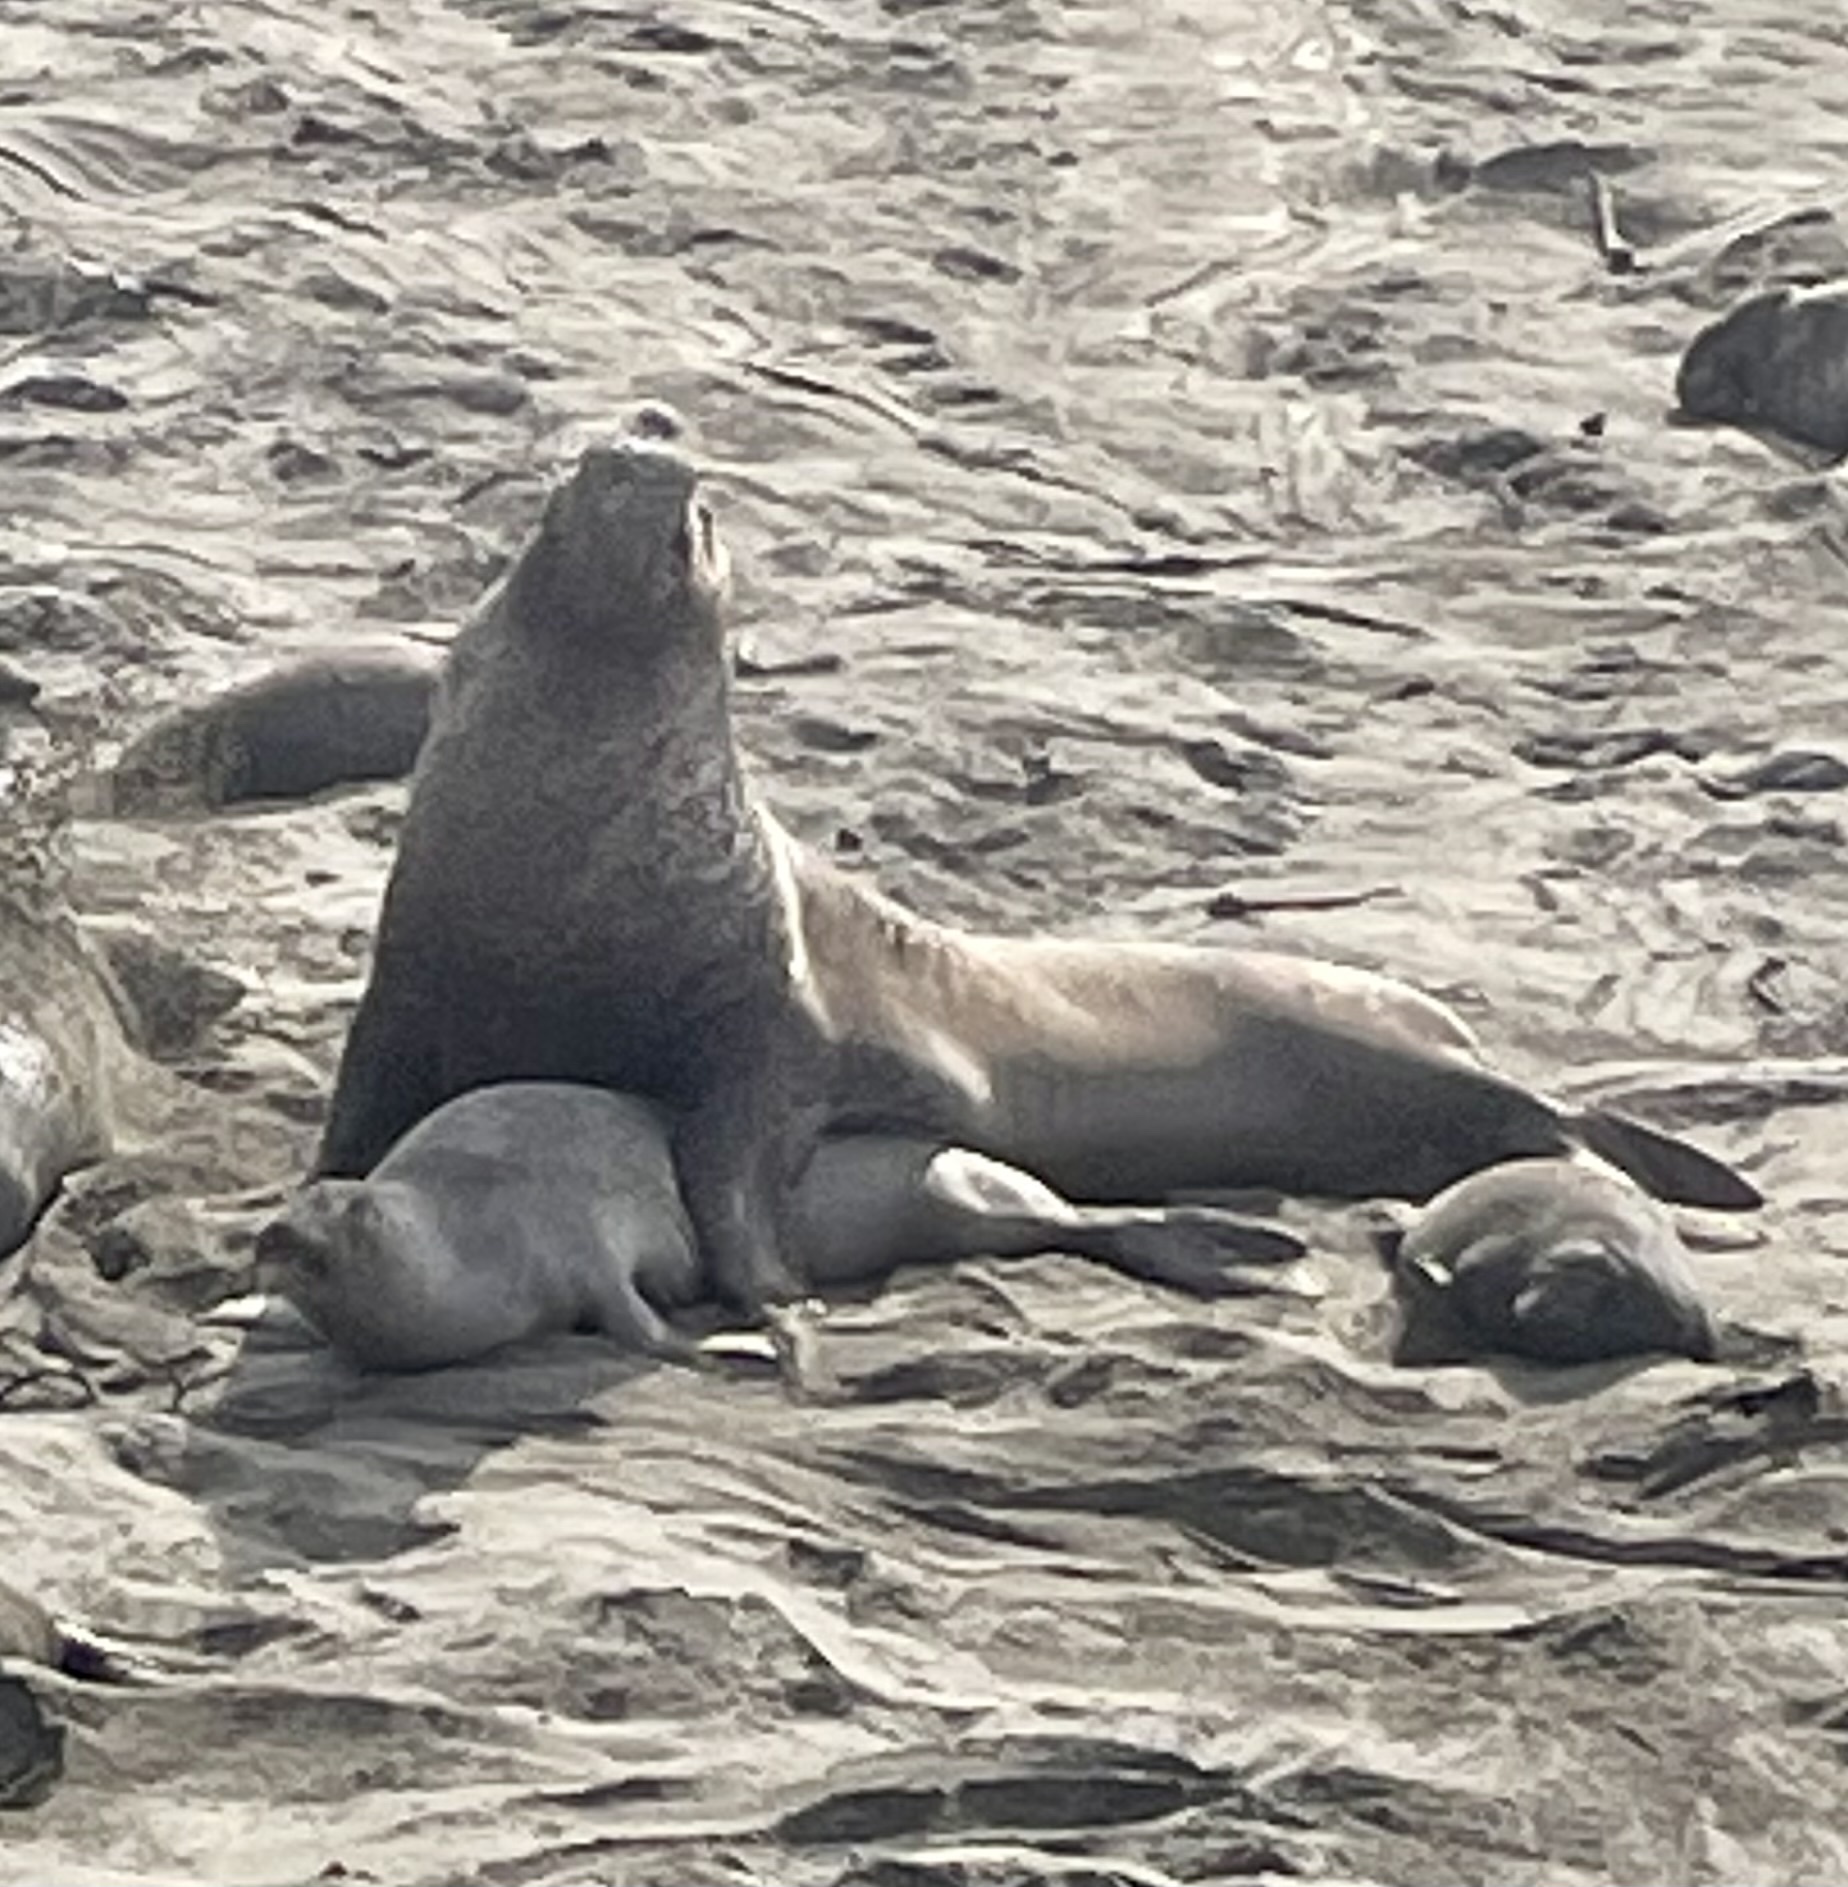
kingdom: Animalia
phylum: Chordata
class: Mammalia
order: Carnivora
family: Phocidae
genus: Mirounga
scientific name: Mirounga angustirostris
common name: Northern elephant seal
